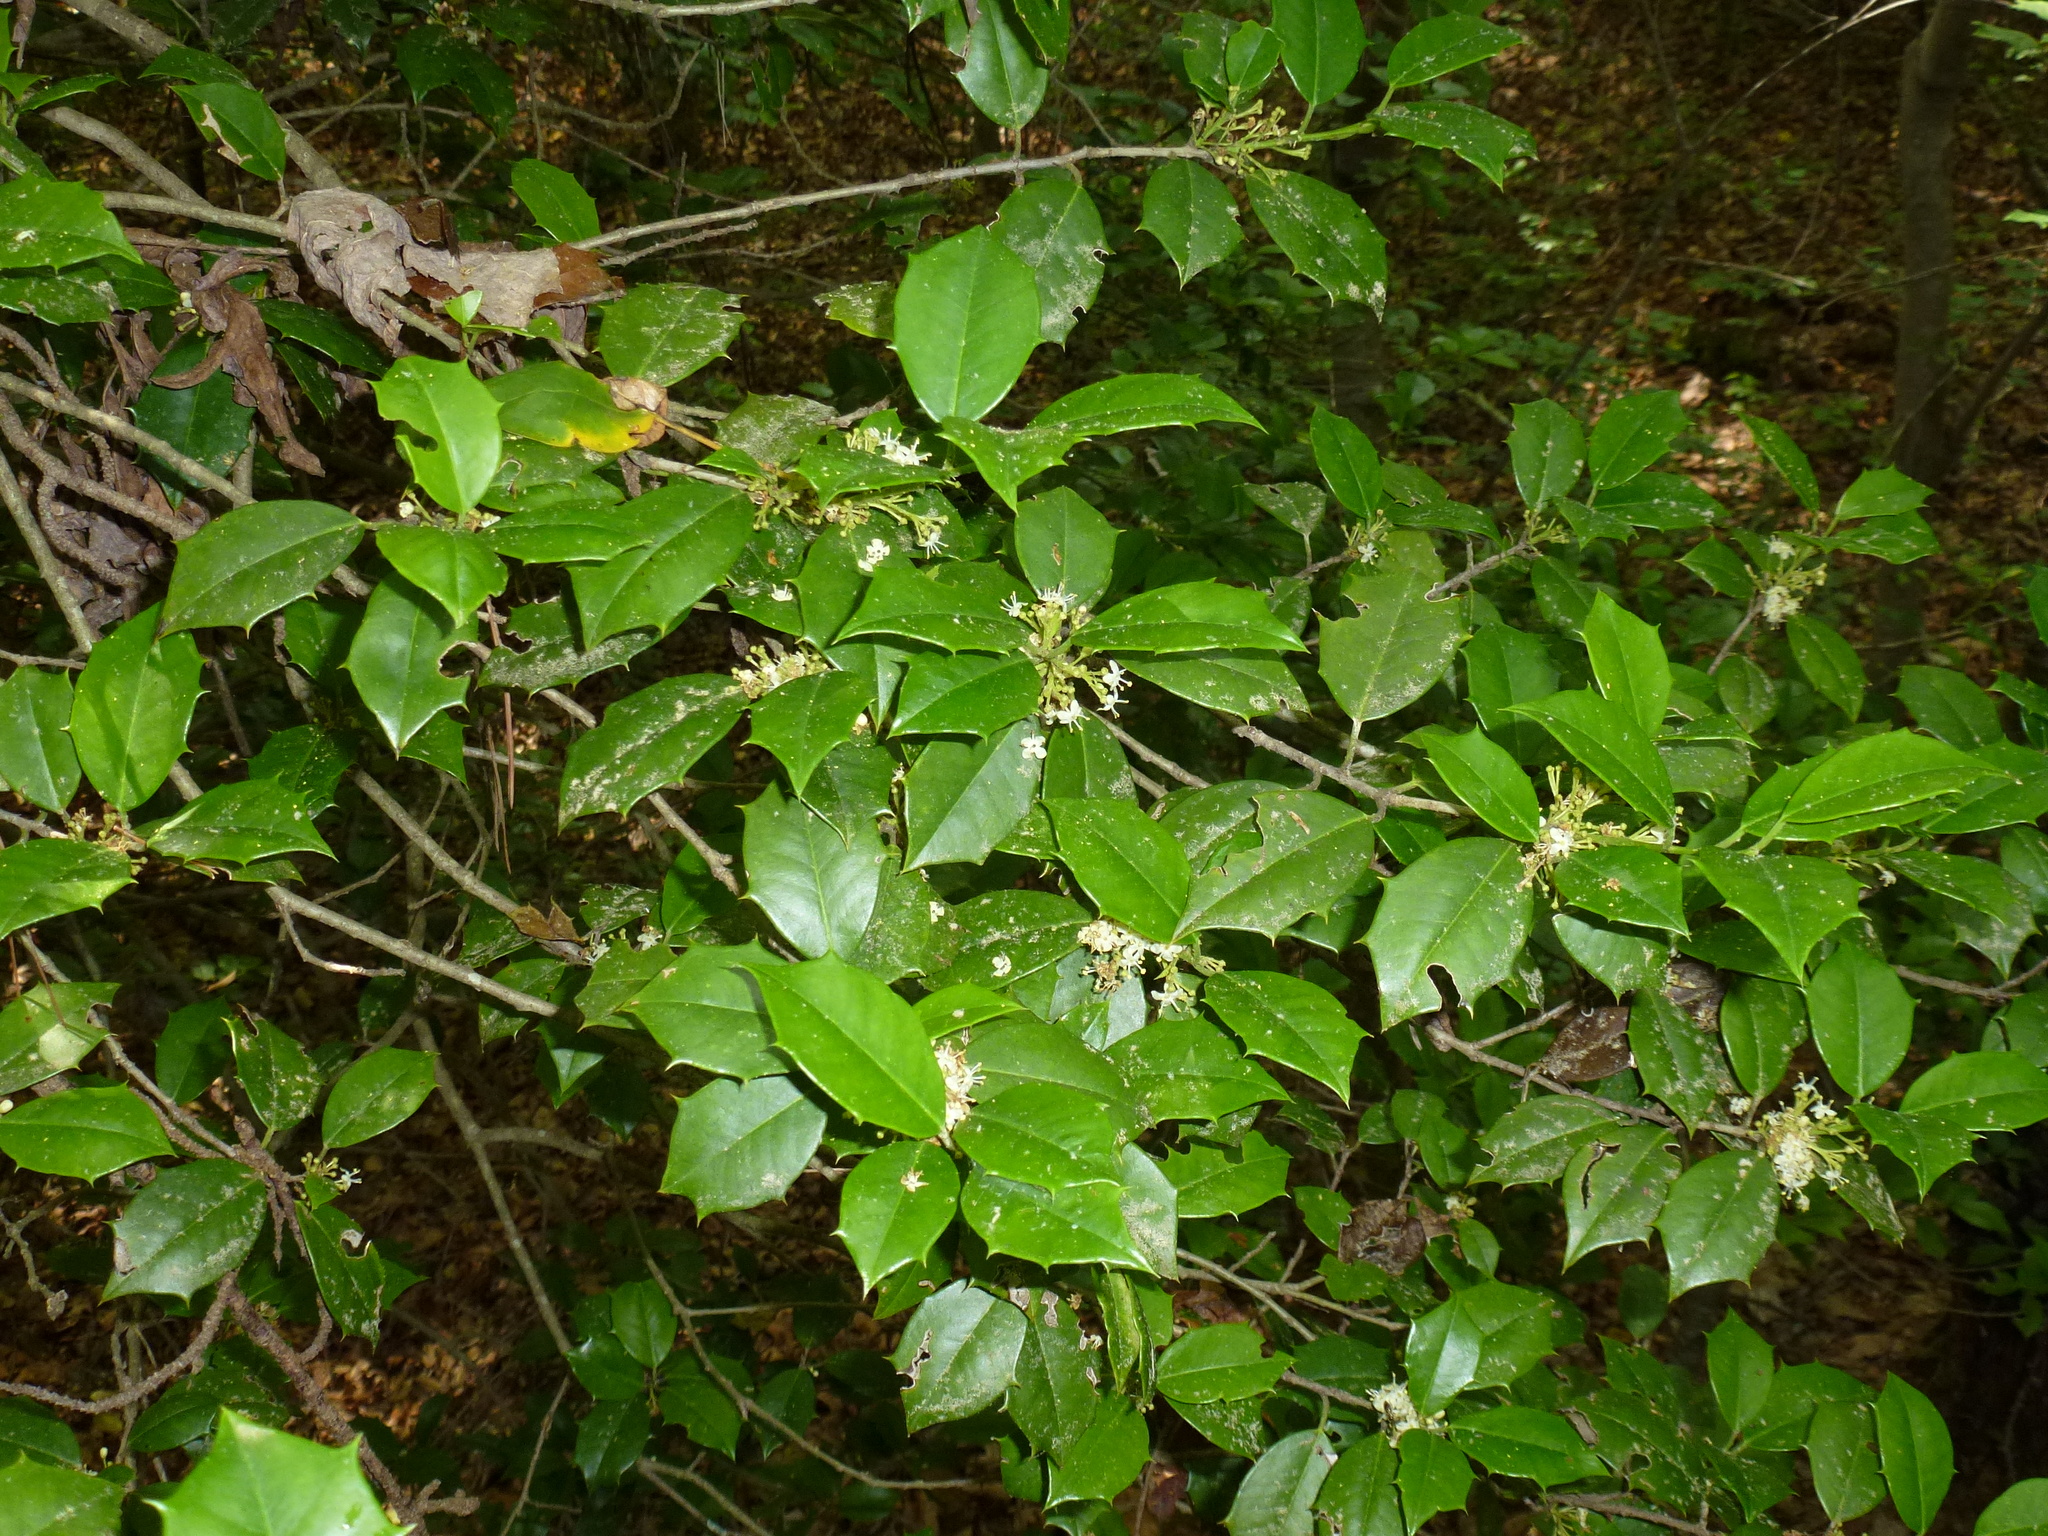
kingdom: Plantae
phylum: Tracheophyta
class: Magnoliopsida
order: Aquifoliales
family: Aquifoliaceae
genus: Ilex
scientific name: Ilex opaca
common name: American holly
